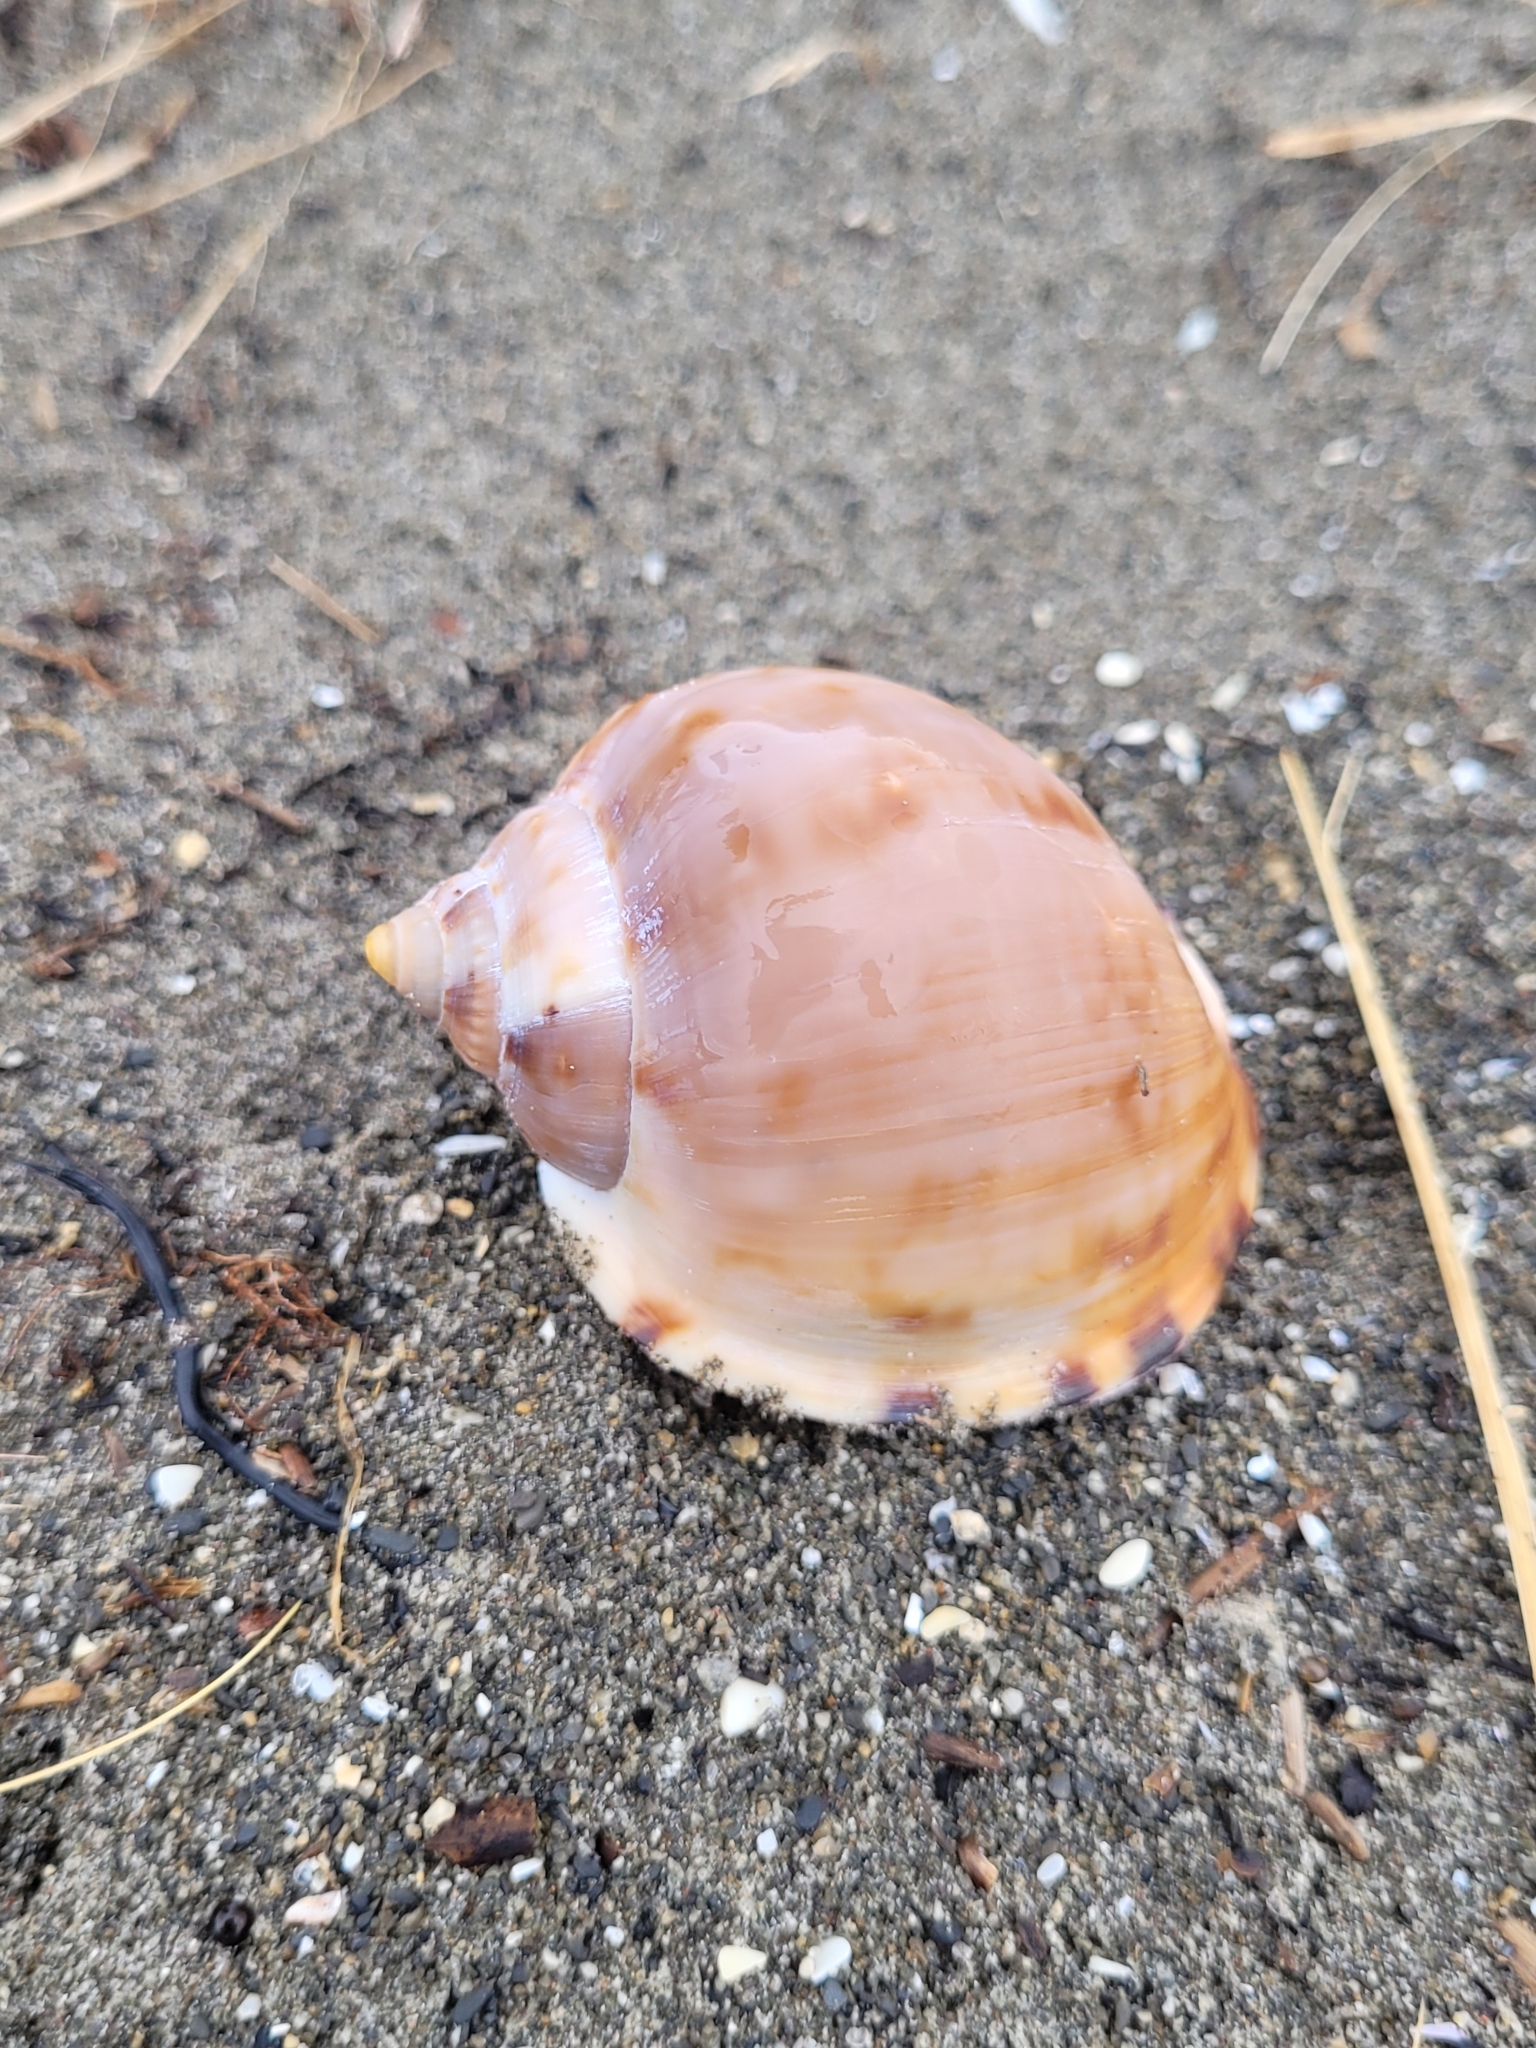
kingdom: Animalia
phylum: Mollusca
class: Gastropoda
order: Littorinimorpha
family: Cassidae
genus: Semicassis
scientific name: Semicassis pyrum
